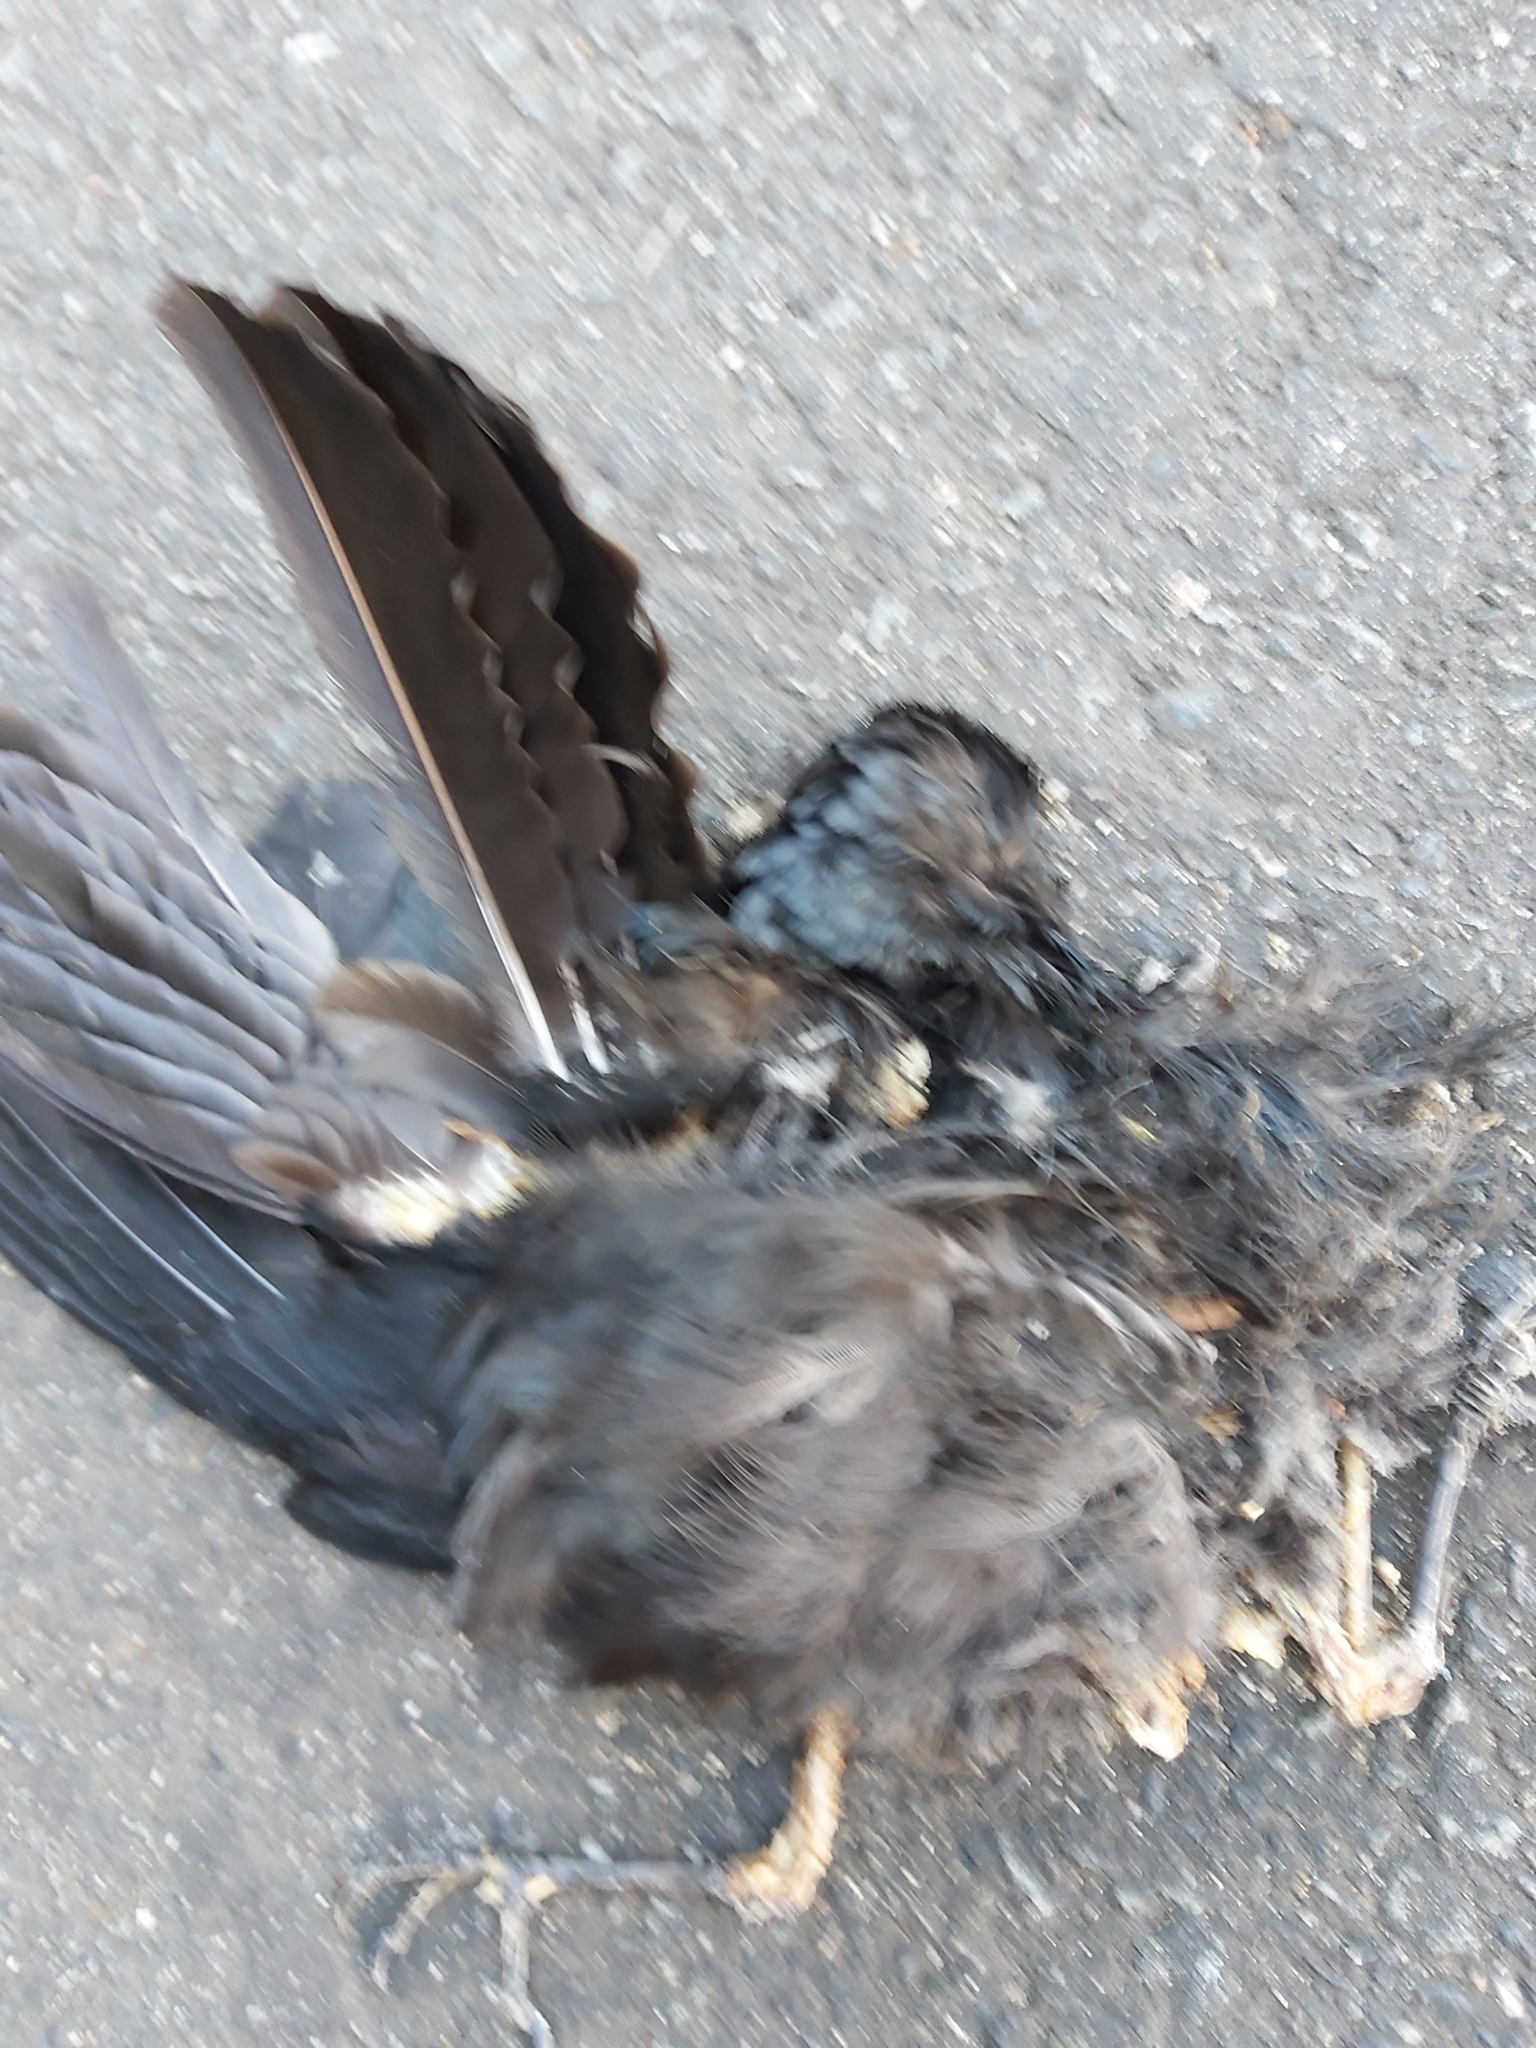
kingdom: Animalia
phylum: Chordata
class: Aves
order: Passeriformes
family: Artamidae
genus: Melloria
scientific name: Melloria quoyi
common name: Black butcherbird
